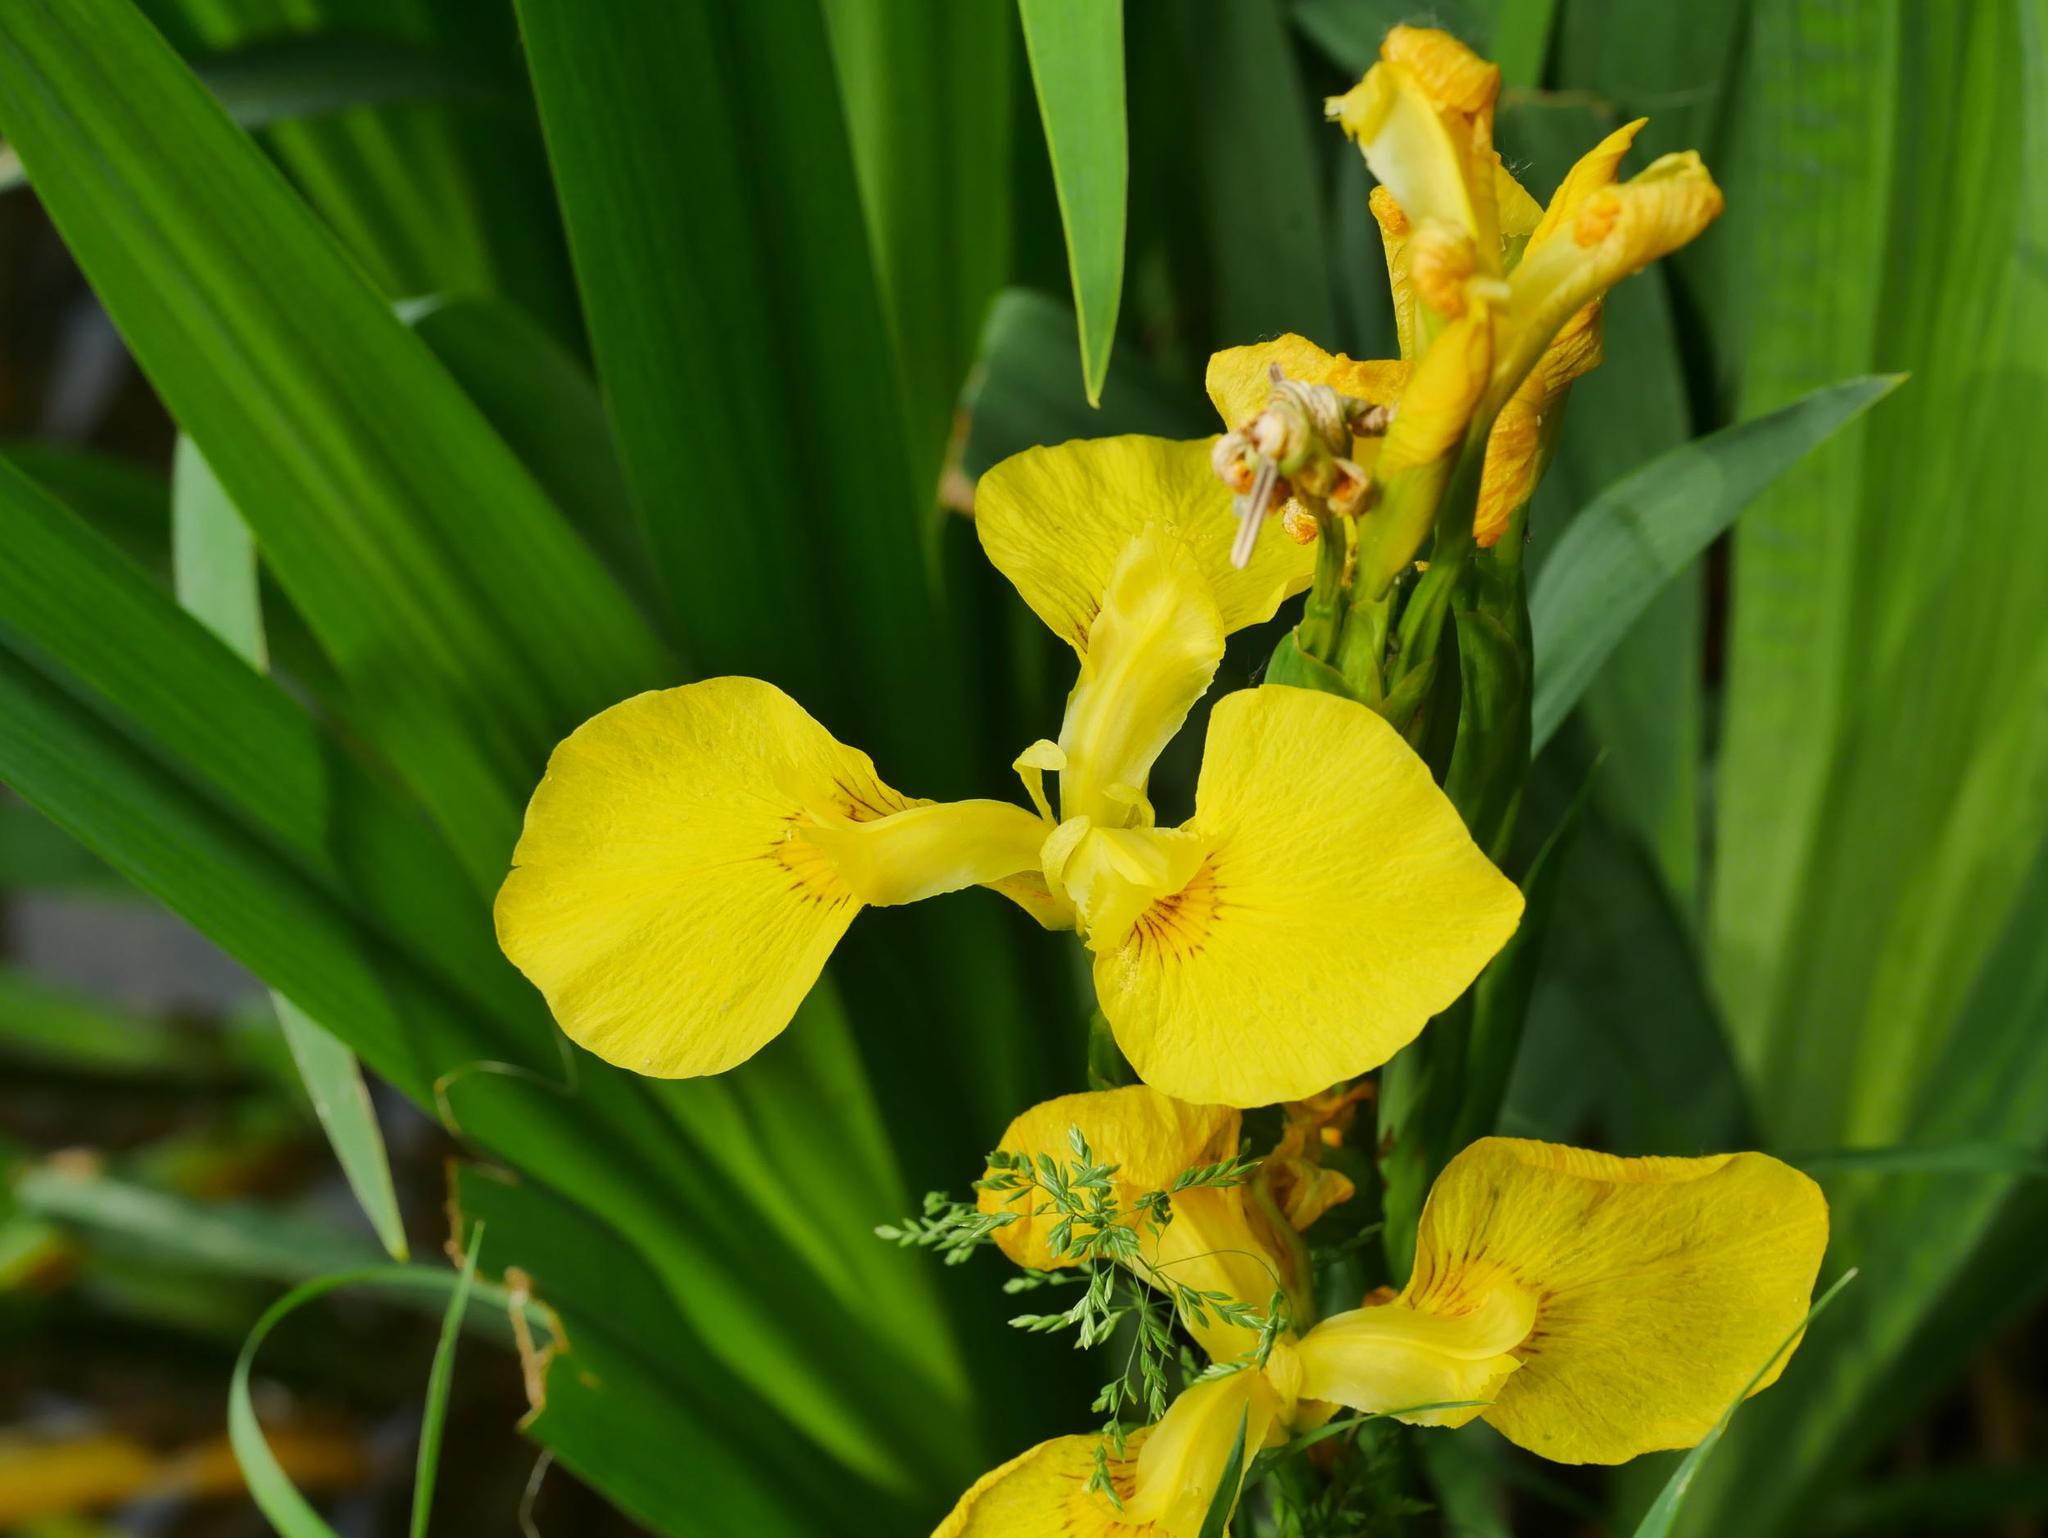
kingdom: Plantae
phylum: Tracheophyta
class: Liliopsida
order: Asparagales
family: Iridaceae
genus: Iris
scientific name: Iris pseudacorus
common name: Yellow flag
